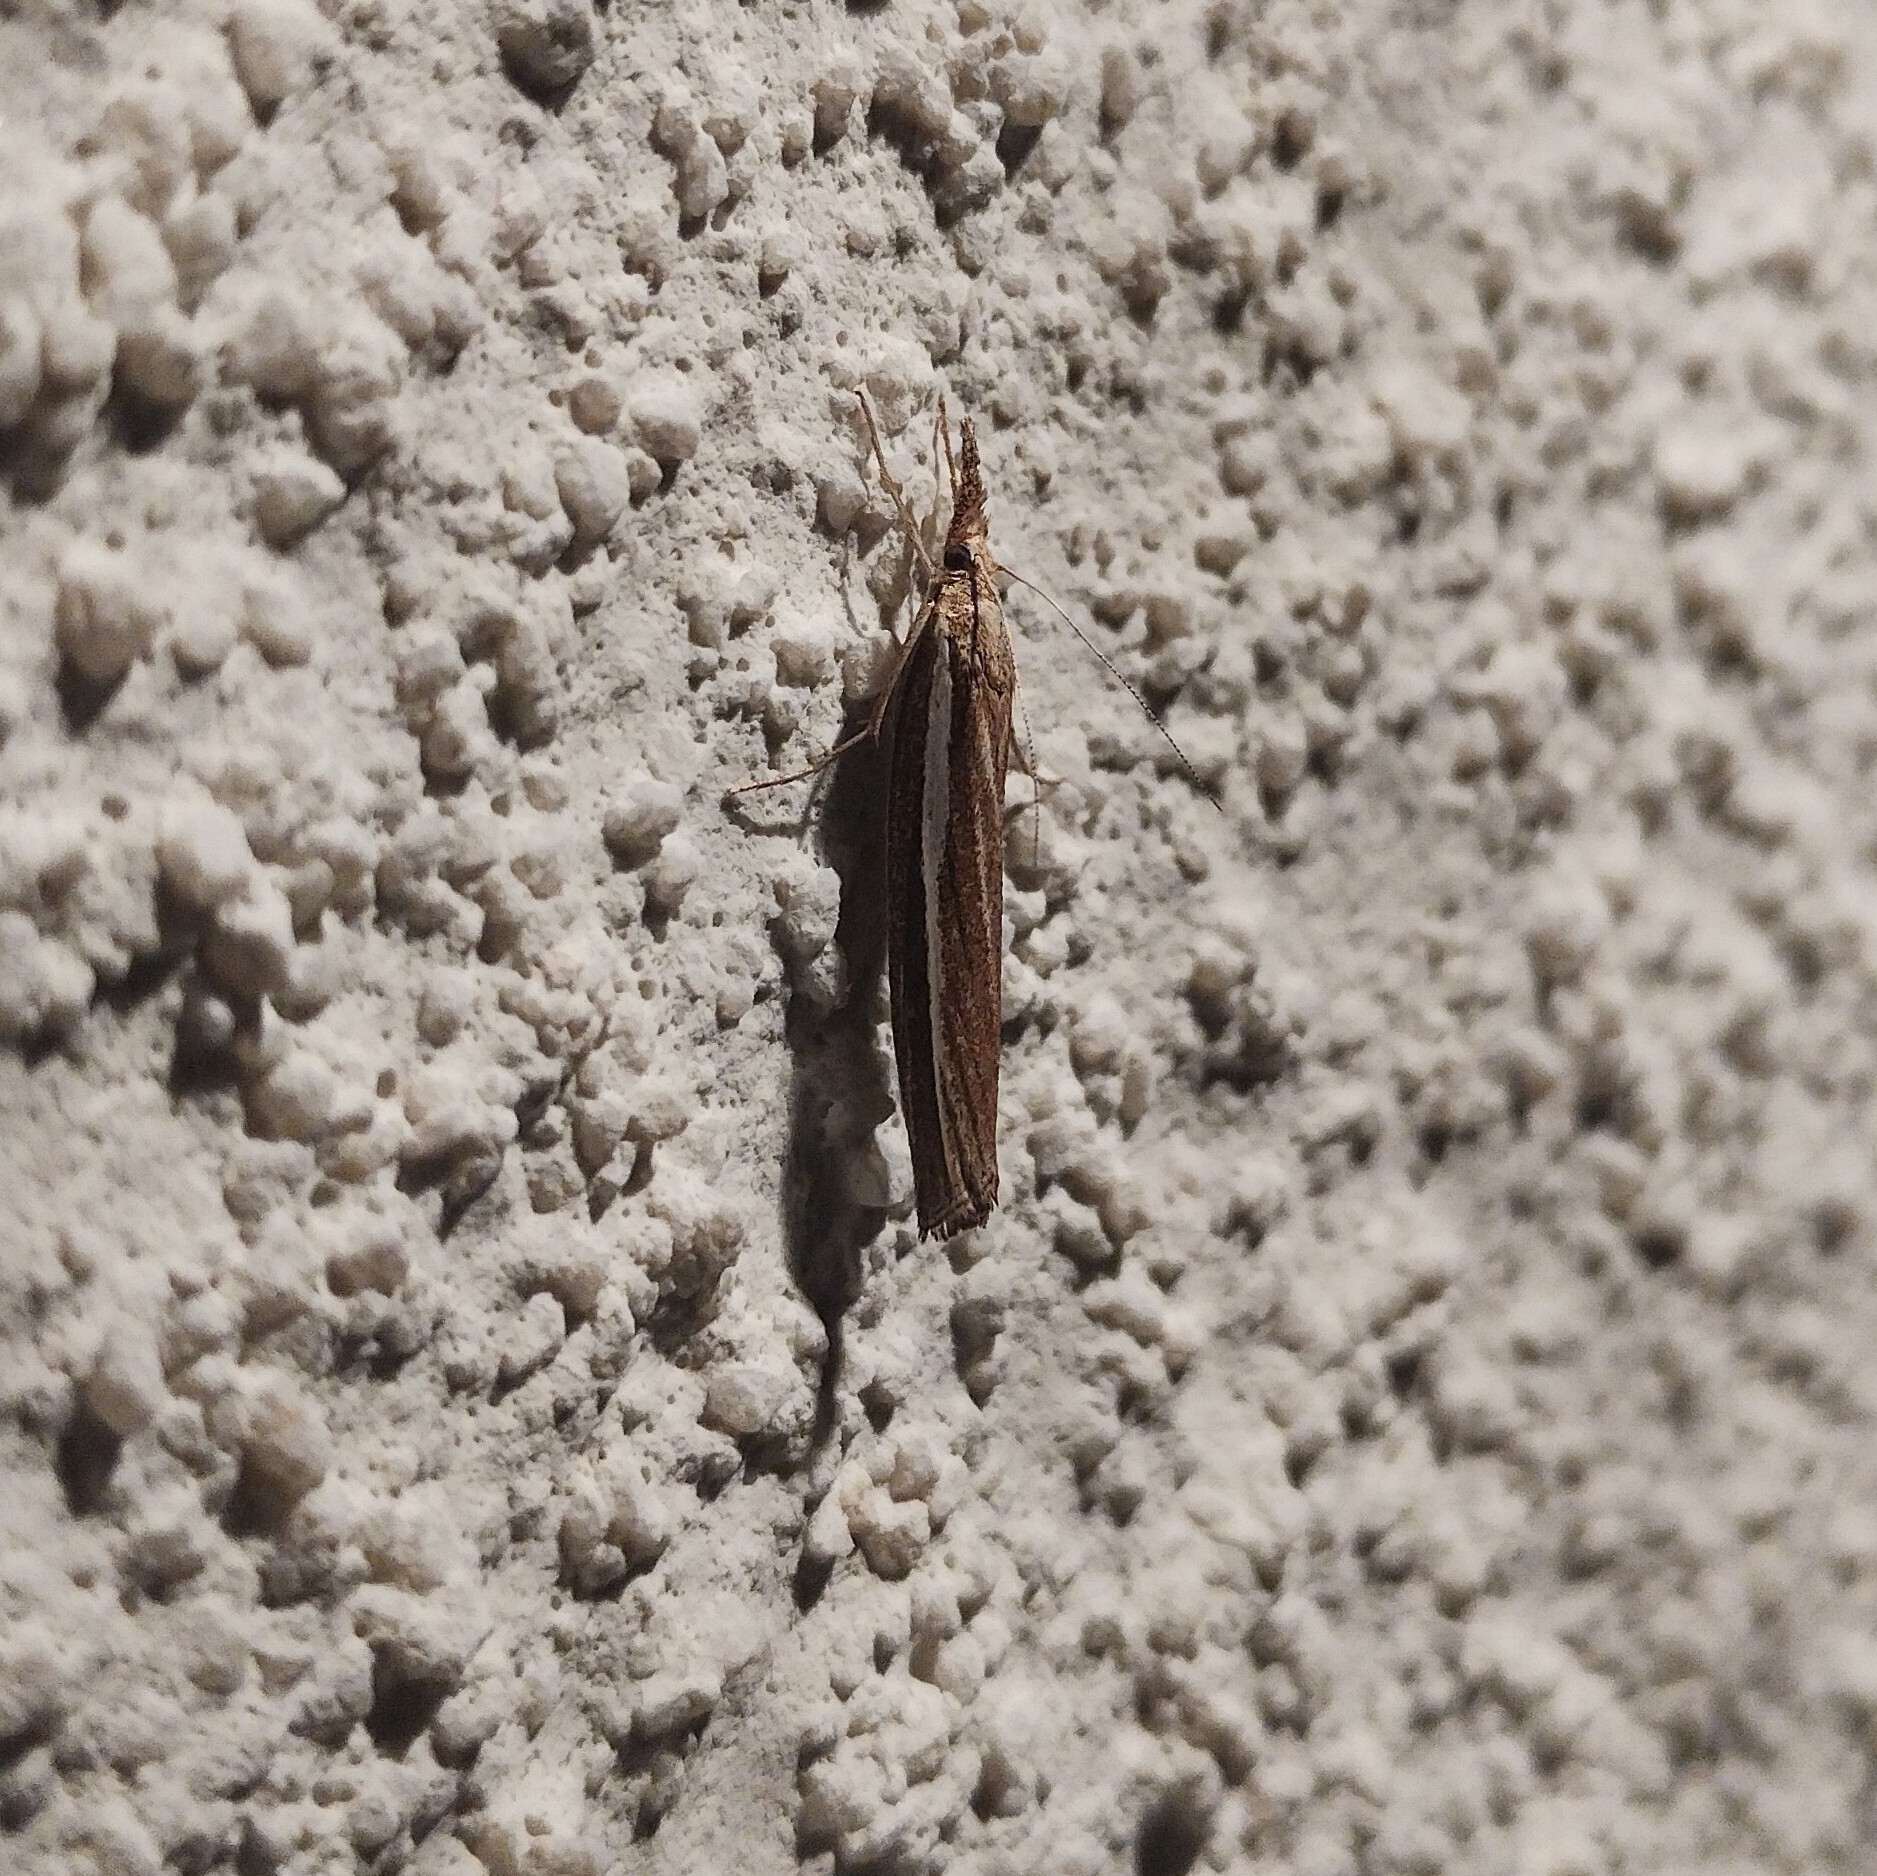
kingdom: Animalia
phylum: Arthropoda
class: Insecta
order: Lepidoptera
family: Crambidae
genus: Agriphila
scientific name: Agriphila tristellus
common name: Common grass-veneer
